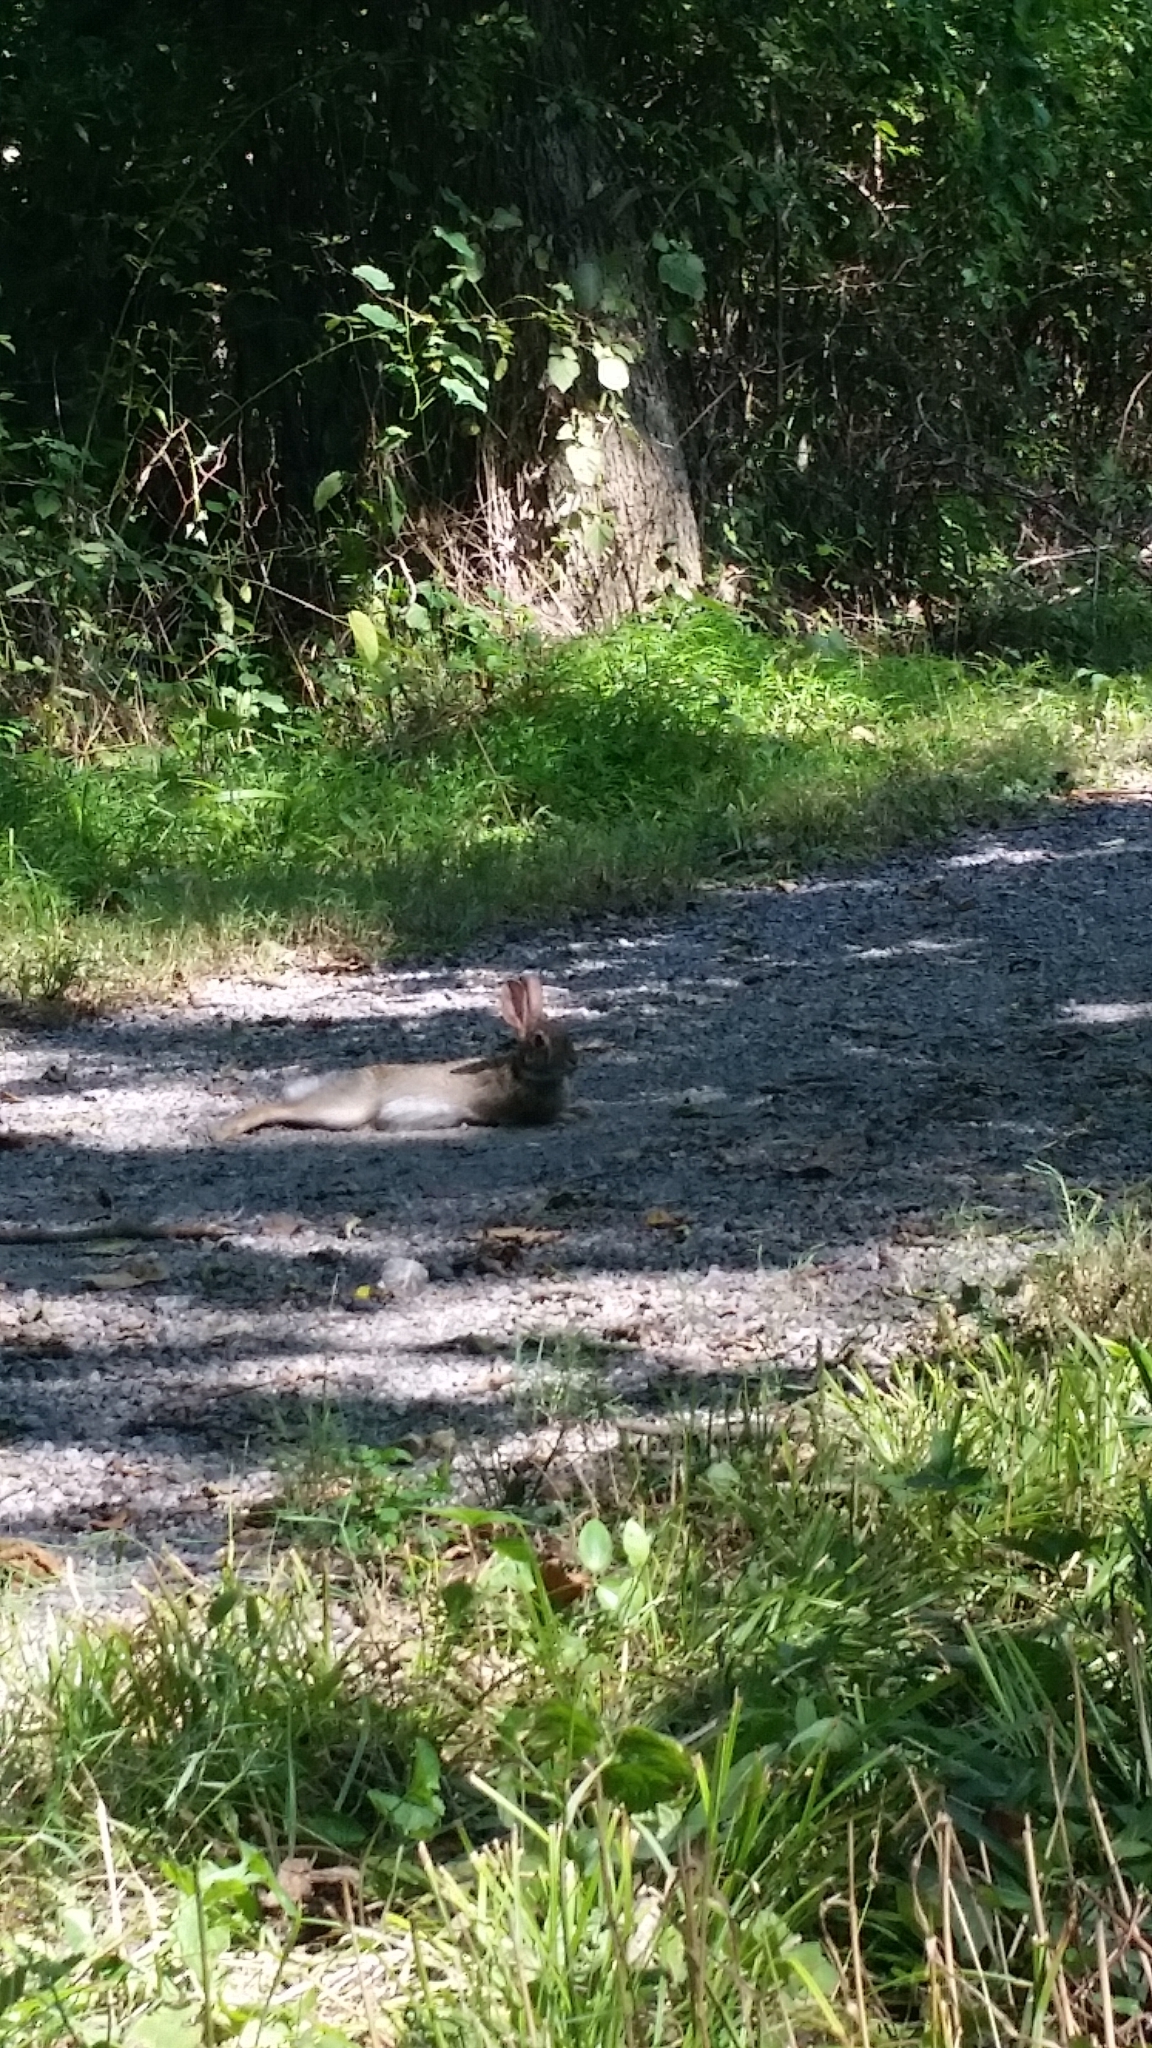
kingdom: Animalia
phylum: Chordata
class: Mammalia
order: Lagomorpha
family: Leporidae
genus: Sylvilagus
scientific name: Sylvilagus floridanus
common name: Eastern cottontail
